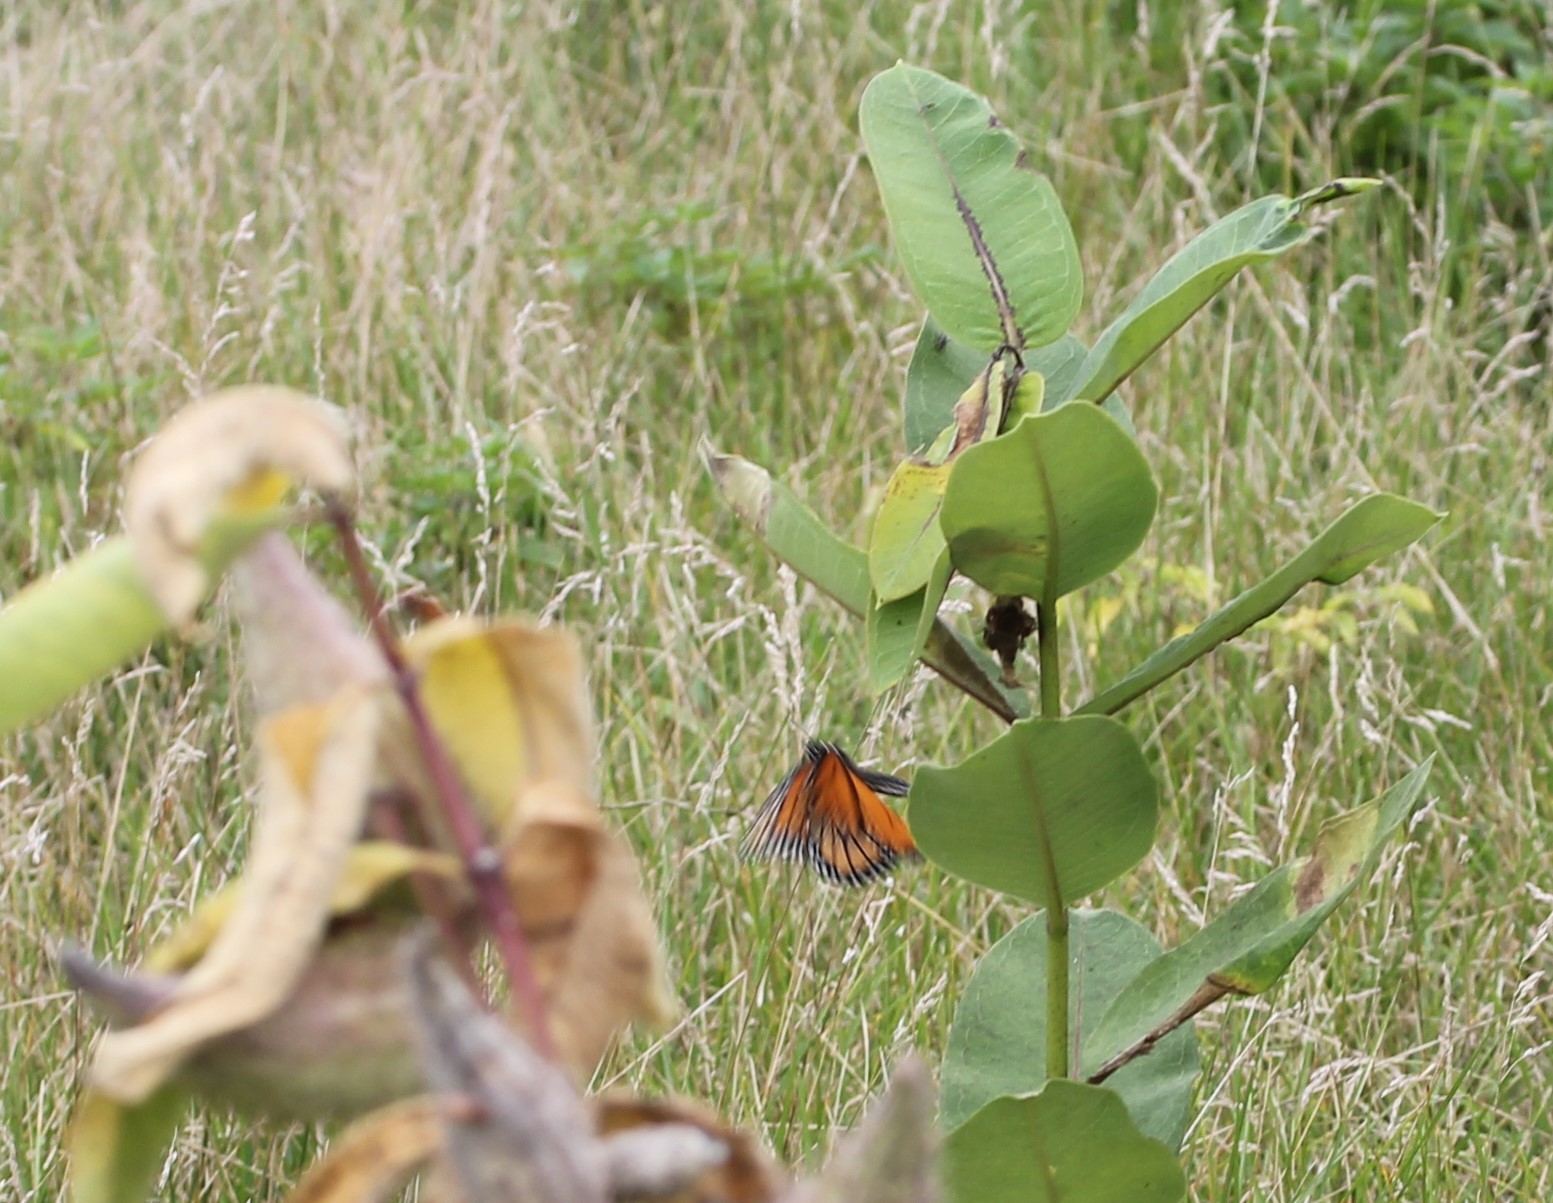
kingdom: Animalia
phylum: Arthropoda
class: Insecta
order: Lepidoptera
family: Nymphalidae
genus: Danaus
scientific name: Danaus plexippus
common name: Monarch
